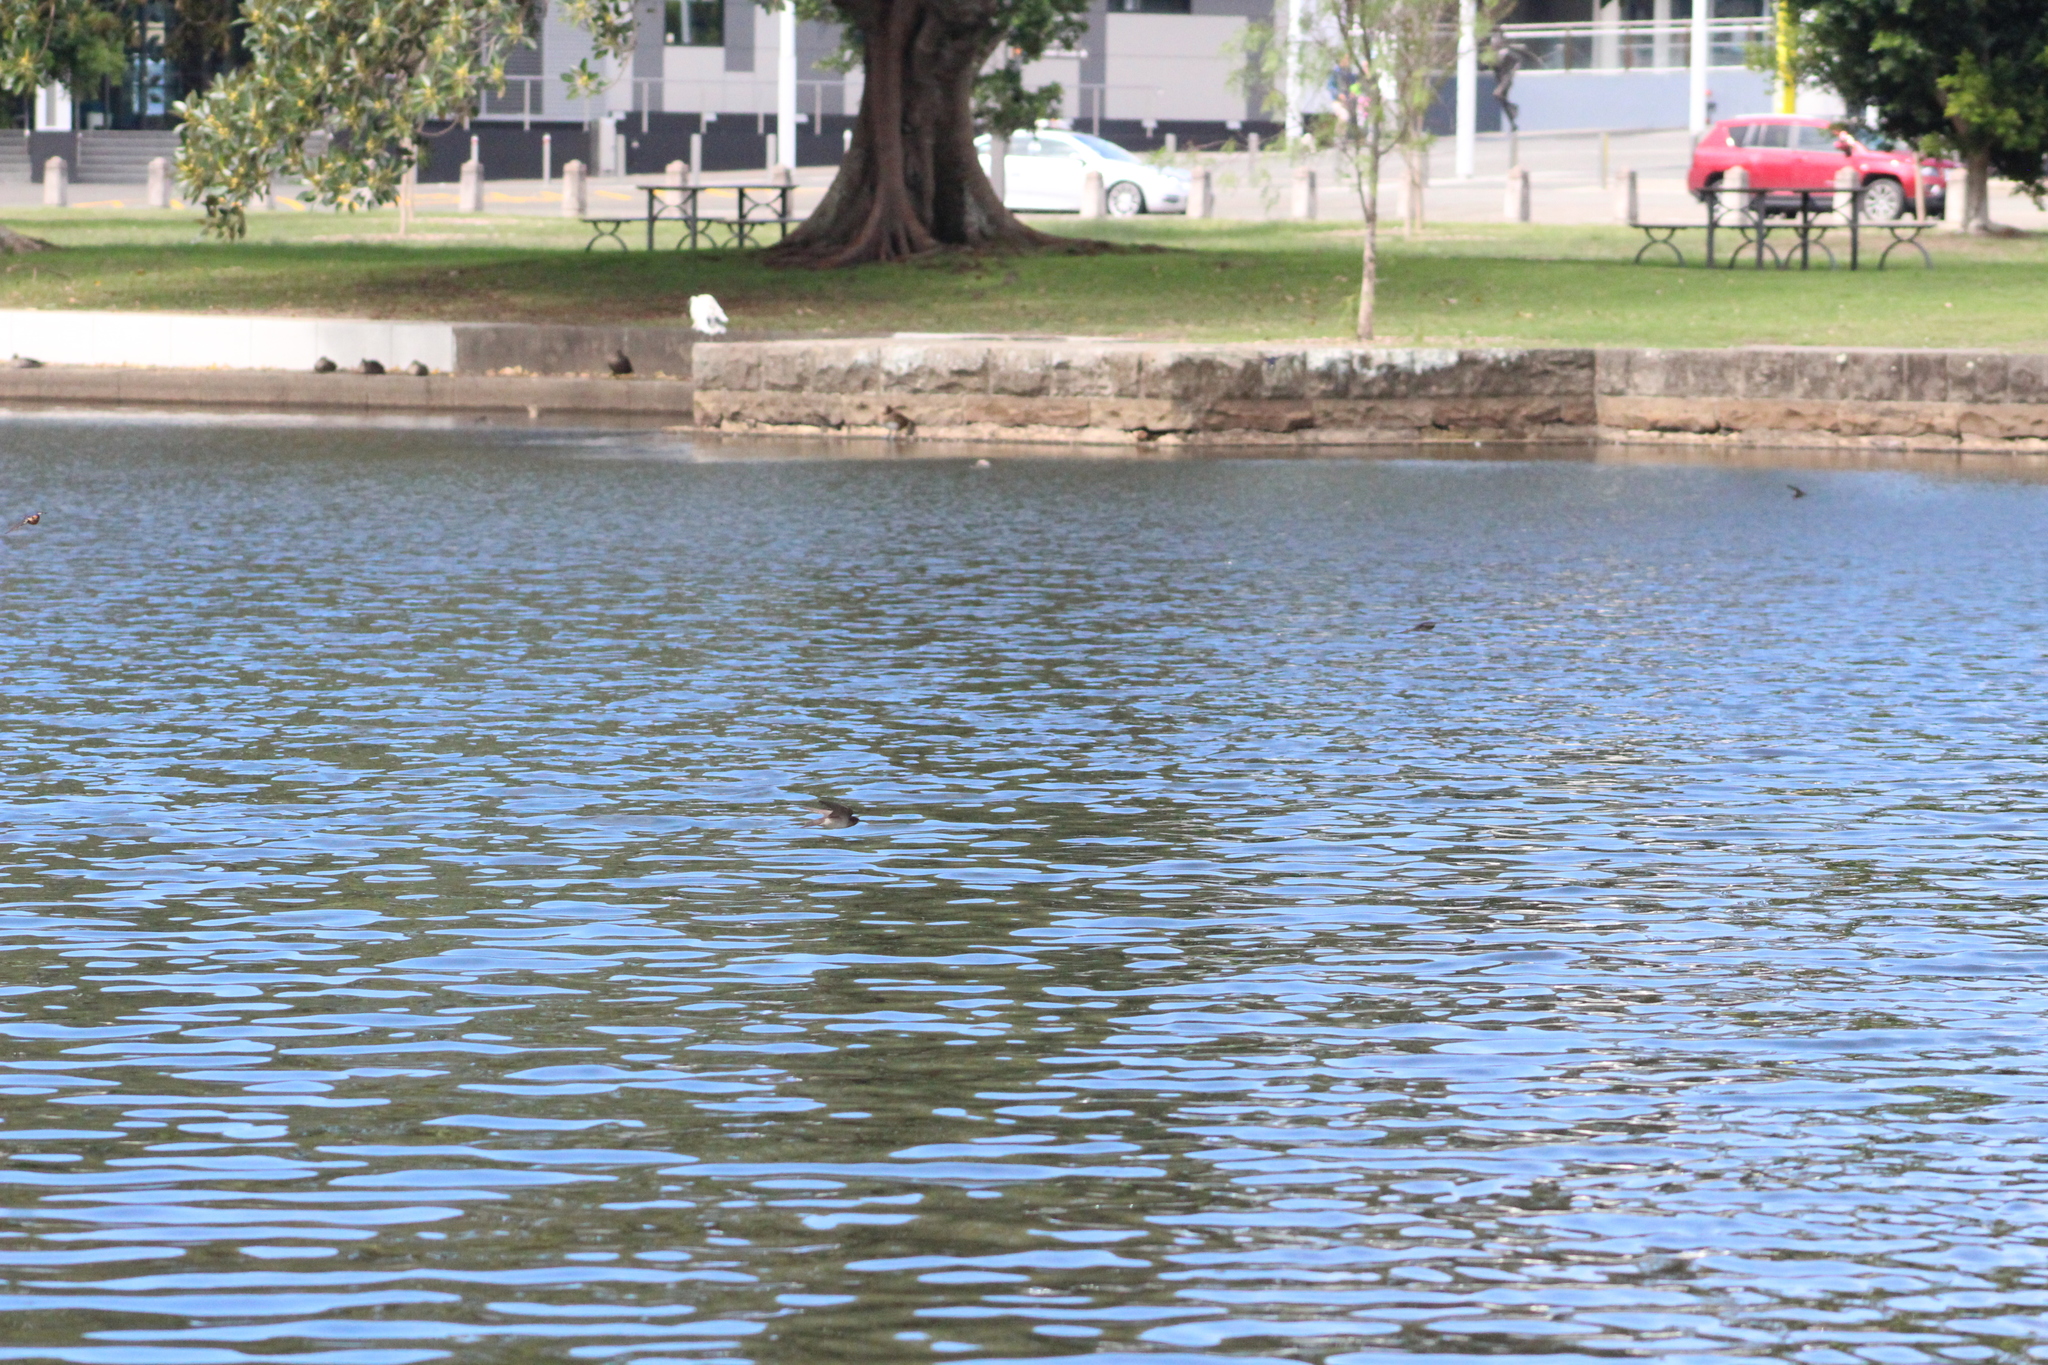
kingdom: Animalia
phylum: Chordata
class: Aves
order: Passeriformes
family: Hirundinidae
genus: Hirundo
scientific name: Hirundo neoxena
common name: Welcome swallow
